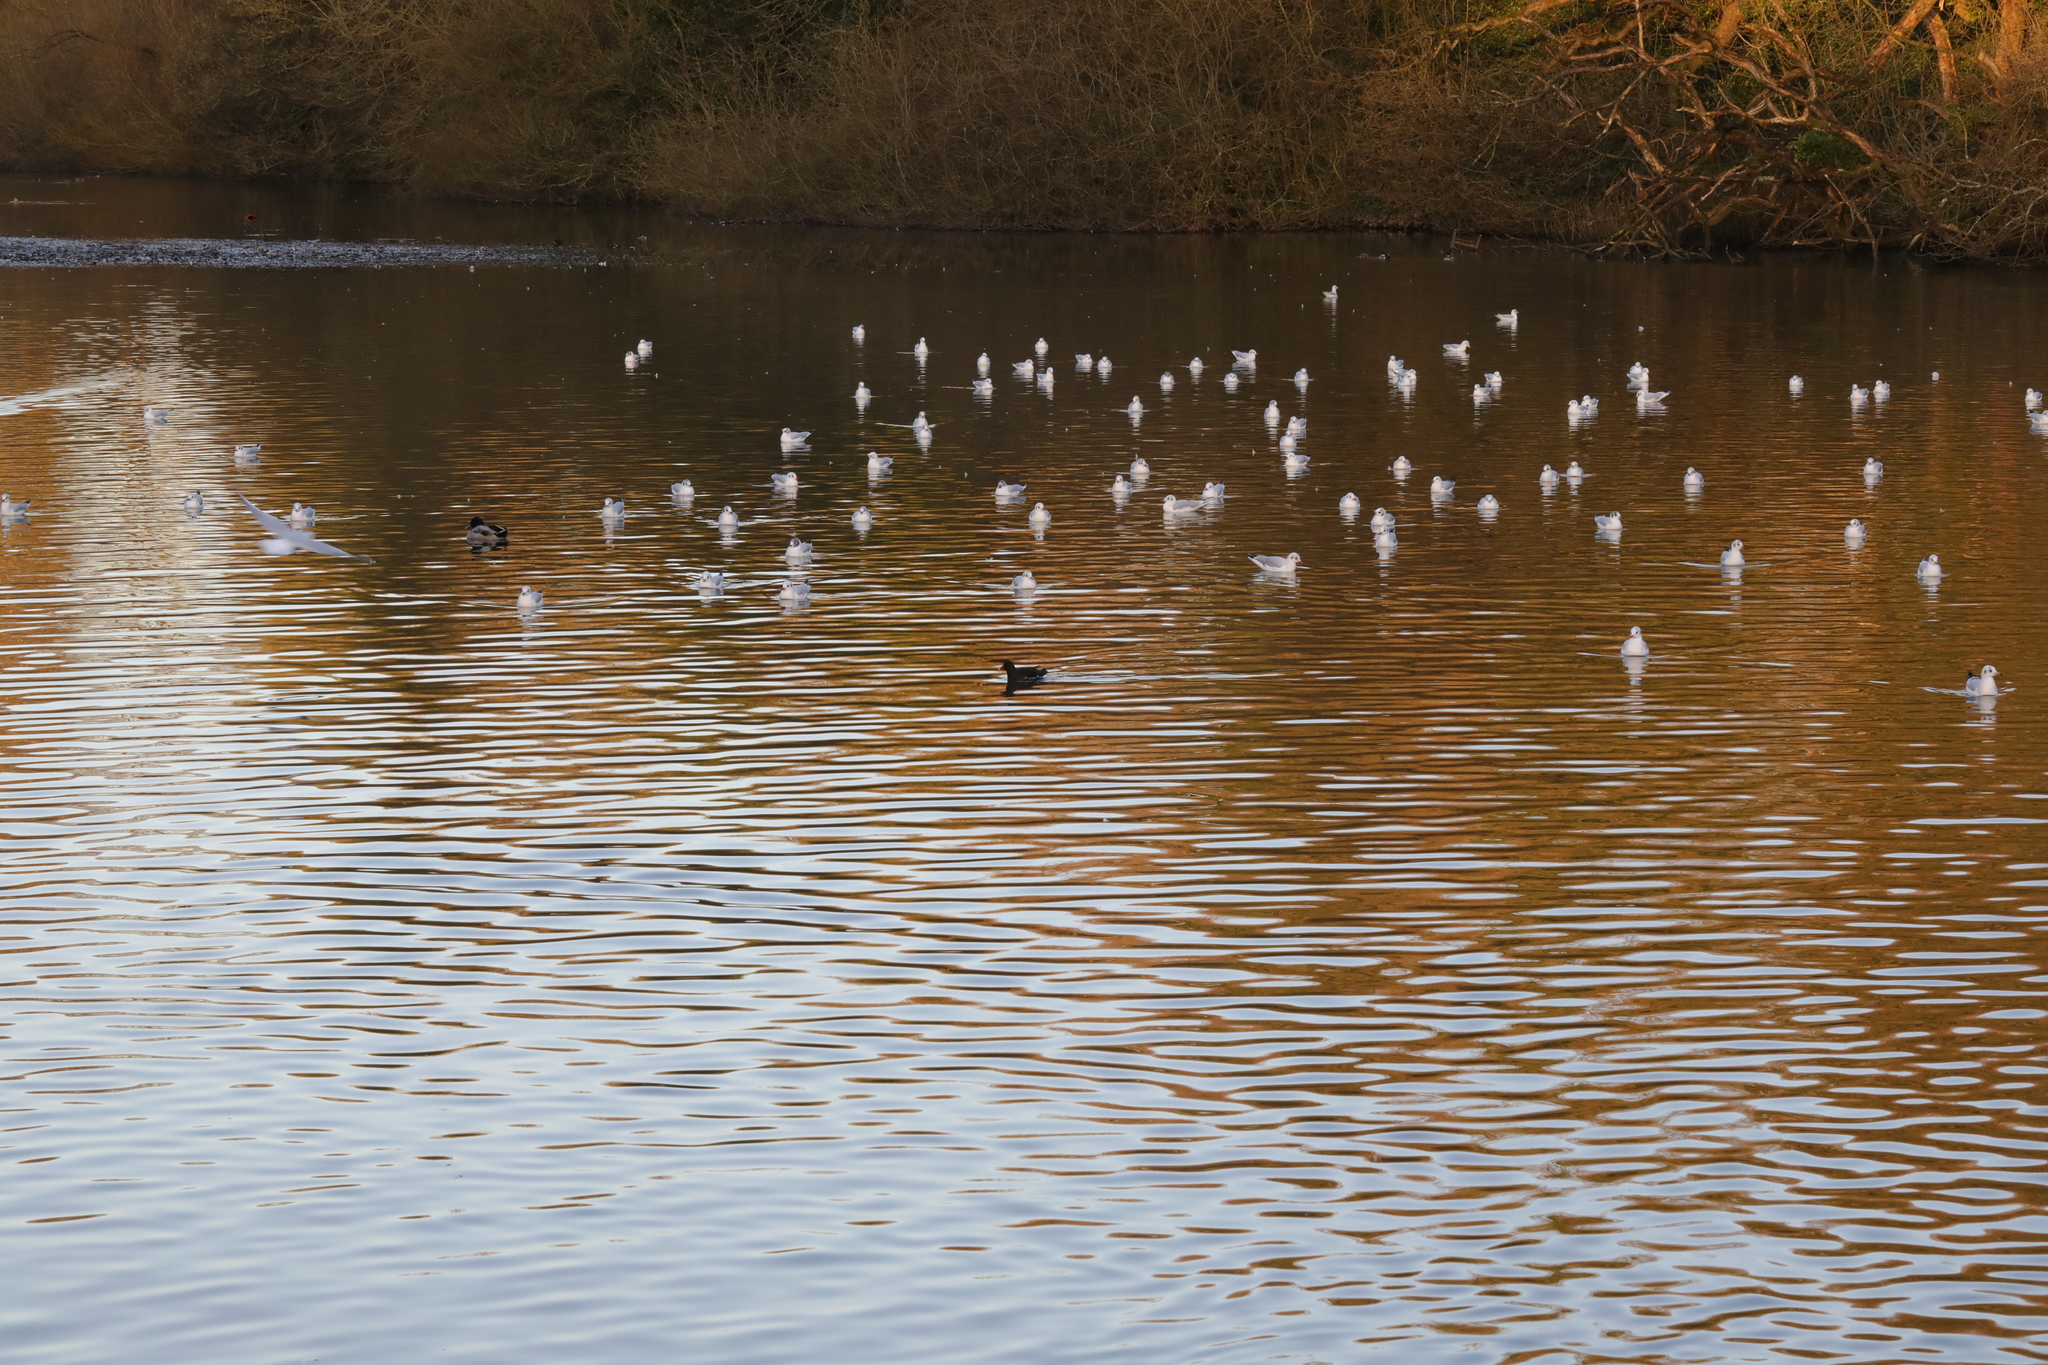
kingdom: Animalia
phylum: Chordata
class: Aves
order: Gruiformes
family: Rallidae
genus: Gallinula
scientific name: Gallinula chloropus
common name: Common moorhen
